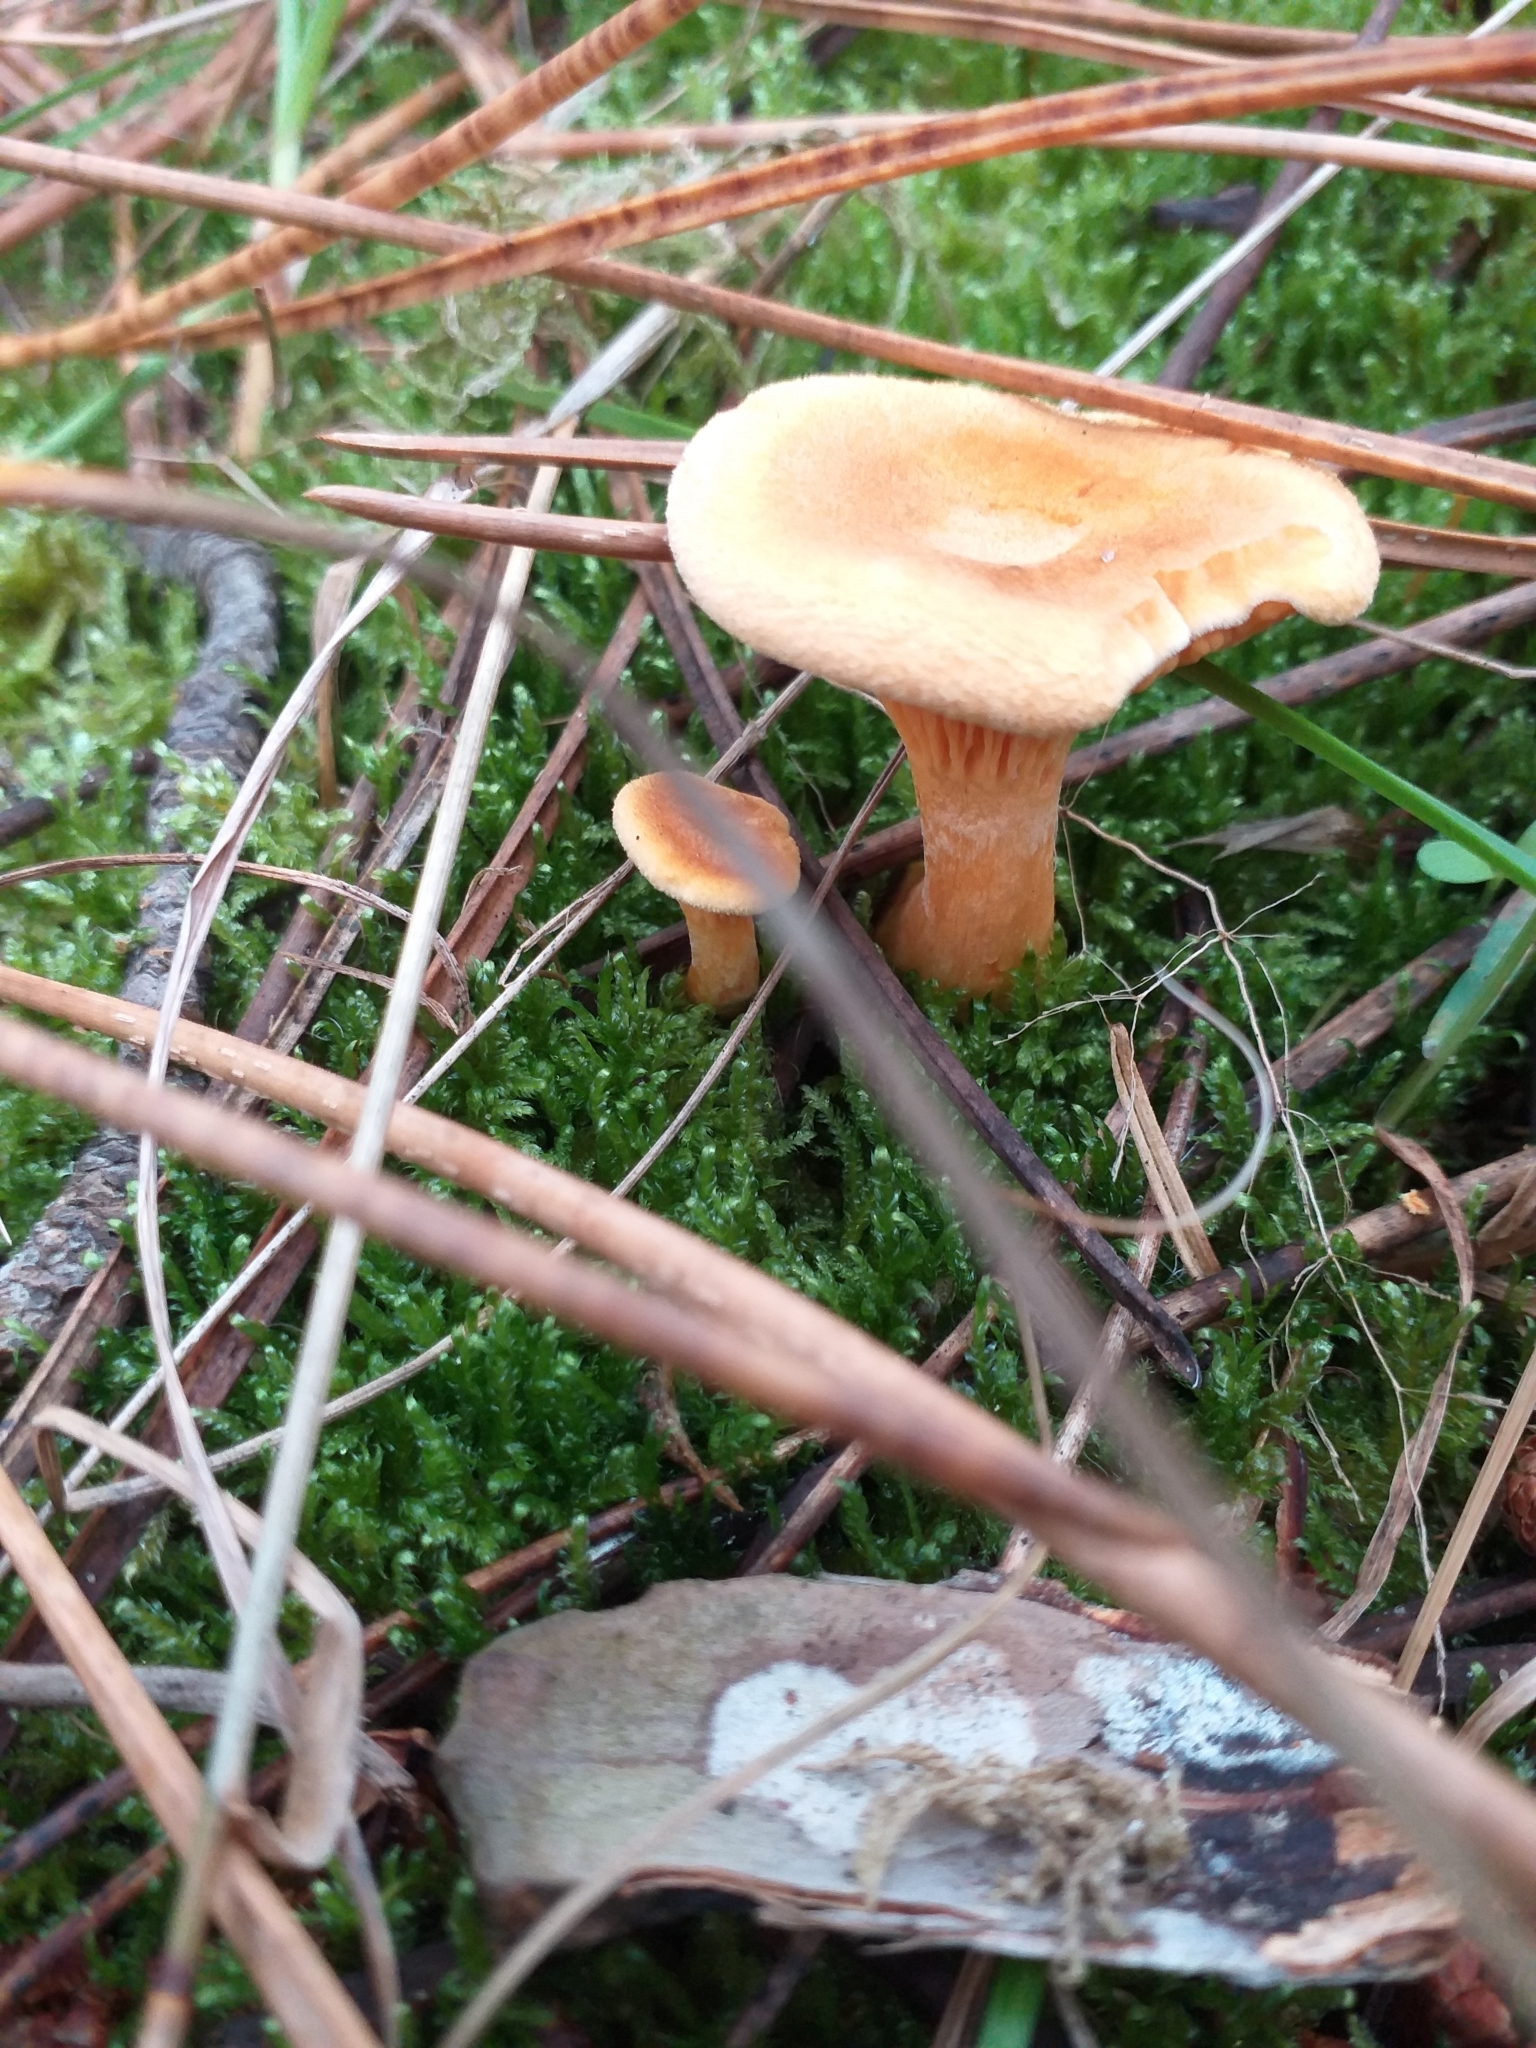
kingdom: Fungi
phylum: Basidiomycota
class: Agaricomycetes
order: Boletales
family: Hygrophoropsidaceae
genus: Hygrophoropsis
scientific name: Hygrophoropsis aurantiaca
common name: False chanterelle
